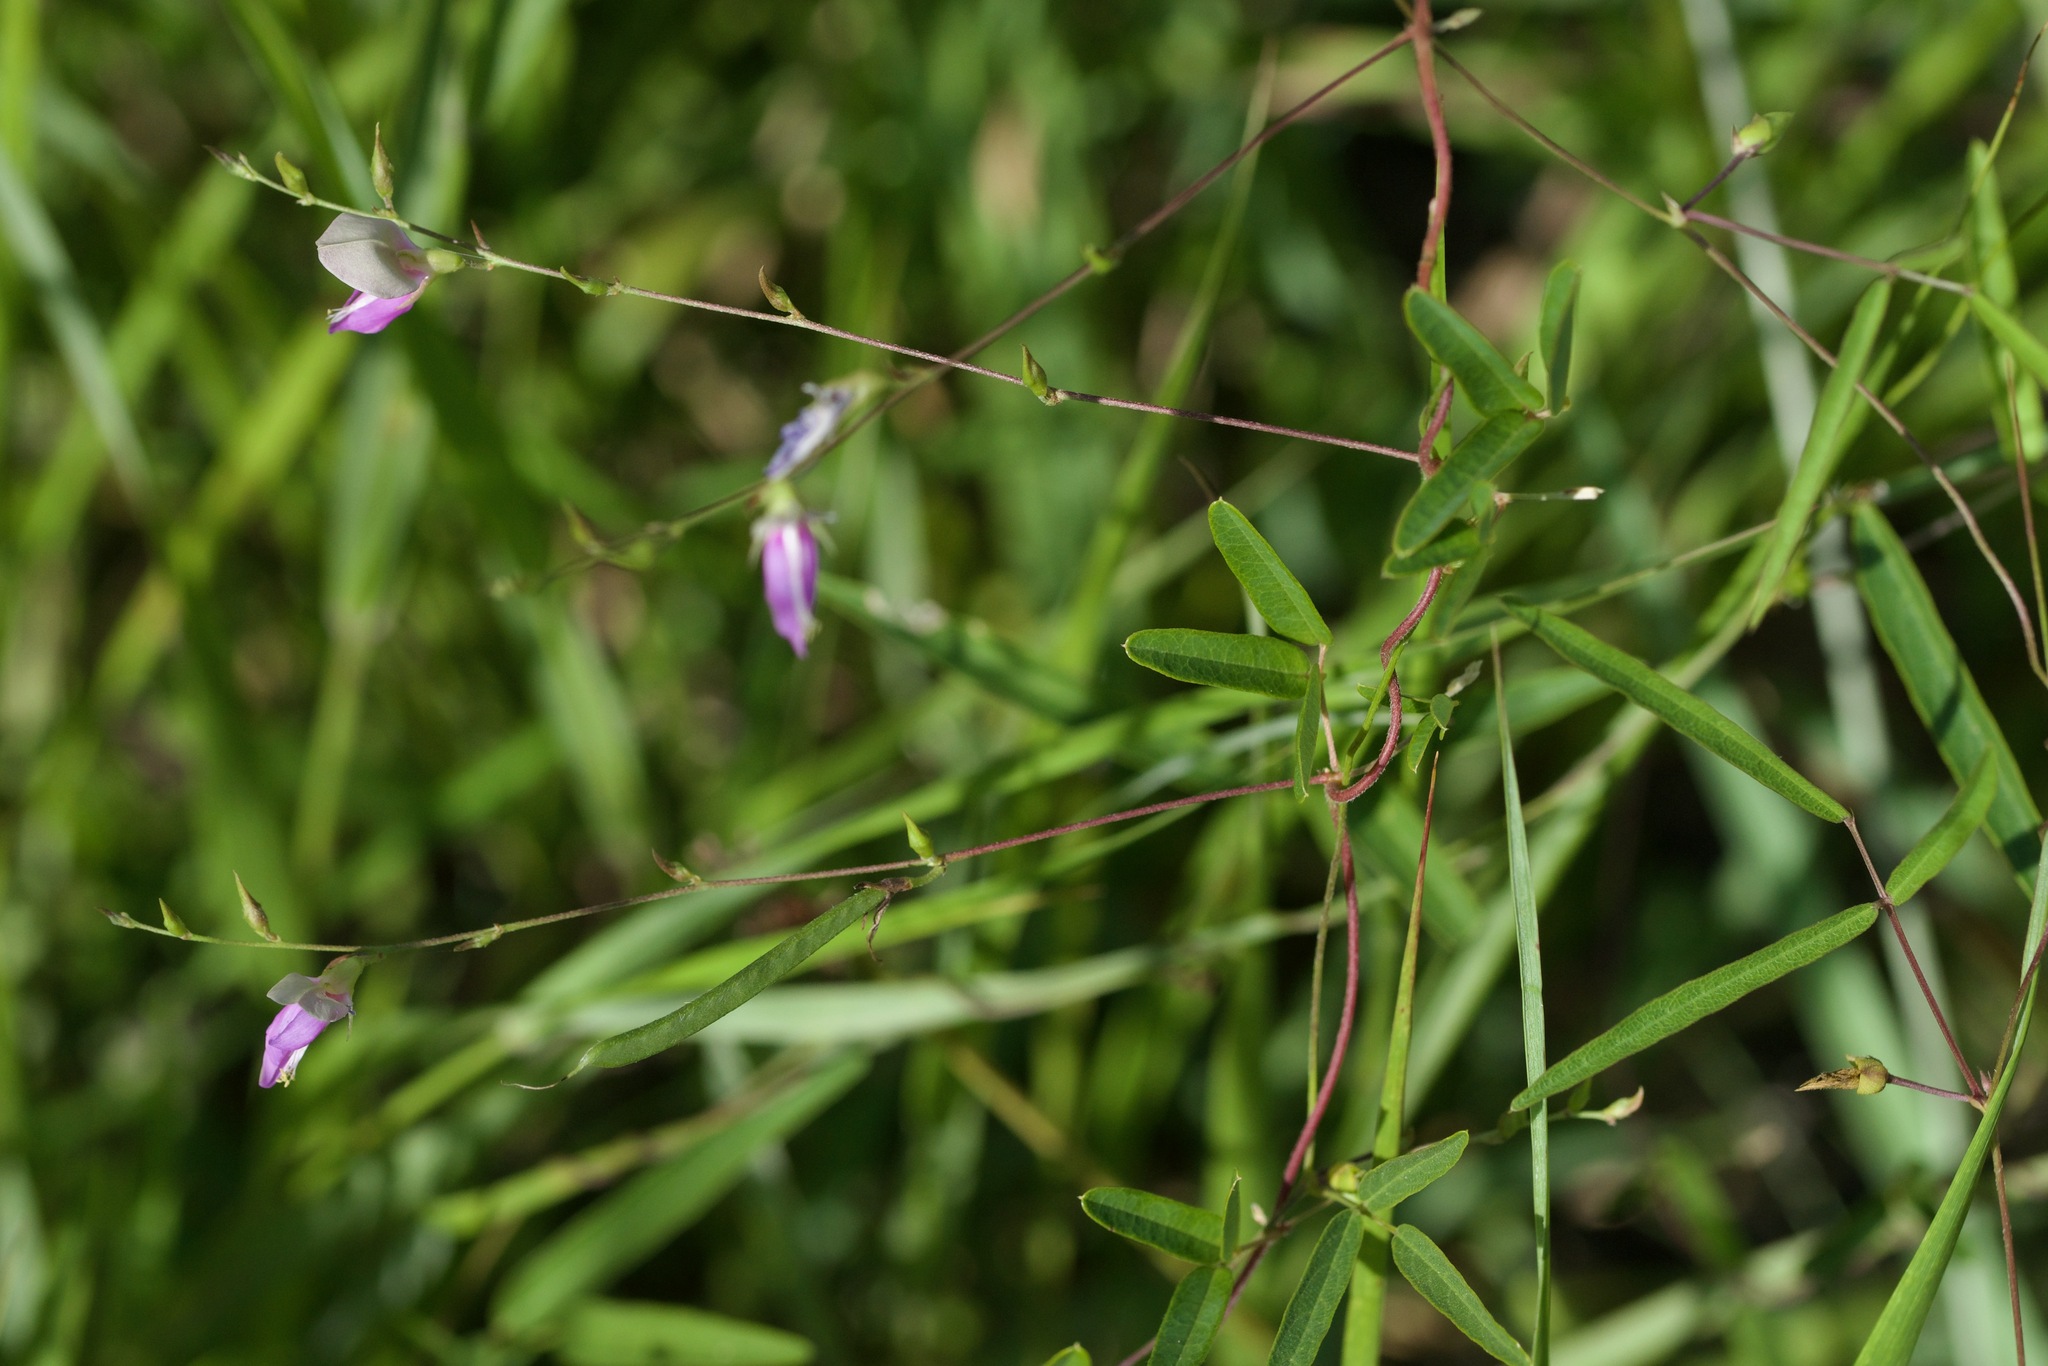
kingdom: Plantae
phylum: Tracheophyta
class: Magnoliopsida
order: Fabales
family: Fabaceae
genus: Galactia
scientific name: Galactia volubilis
